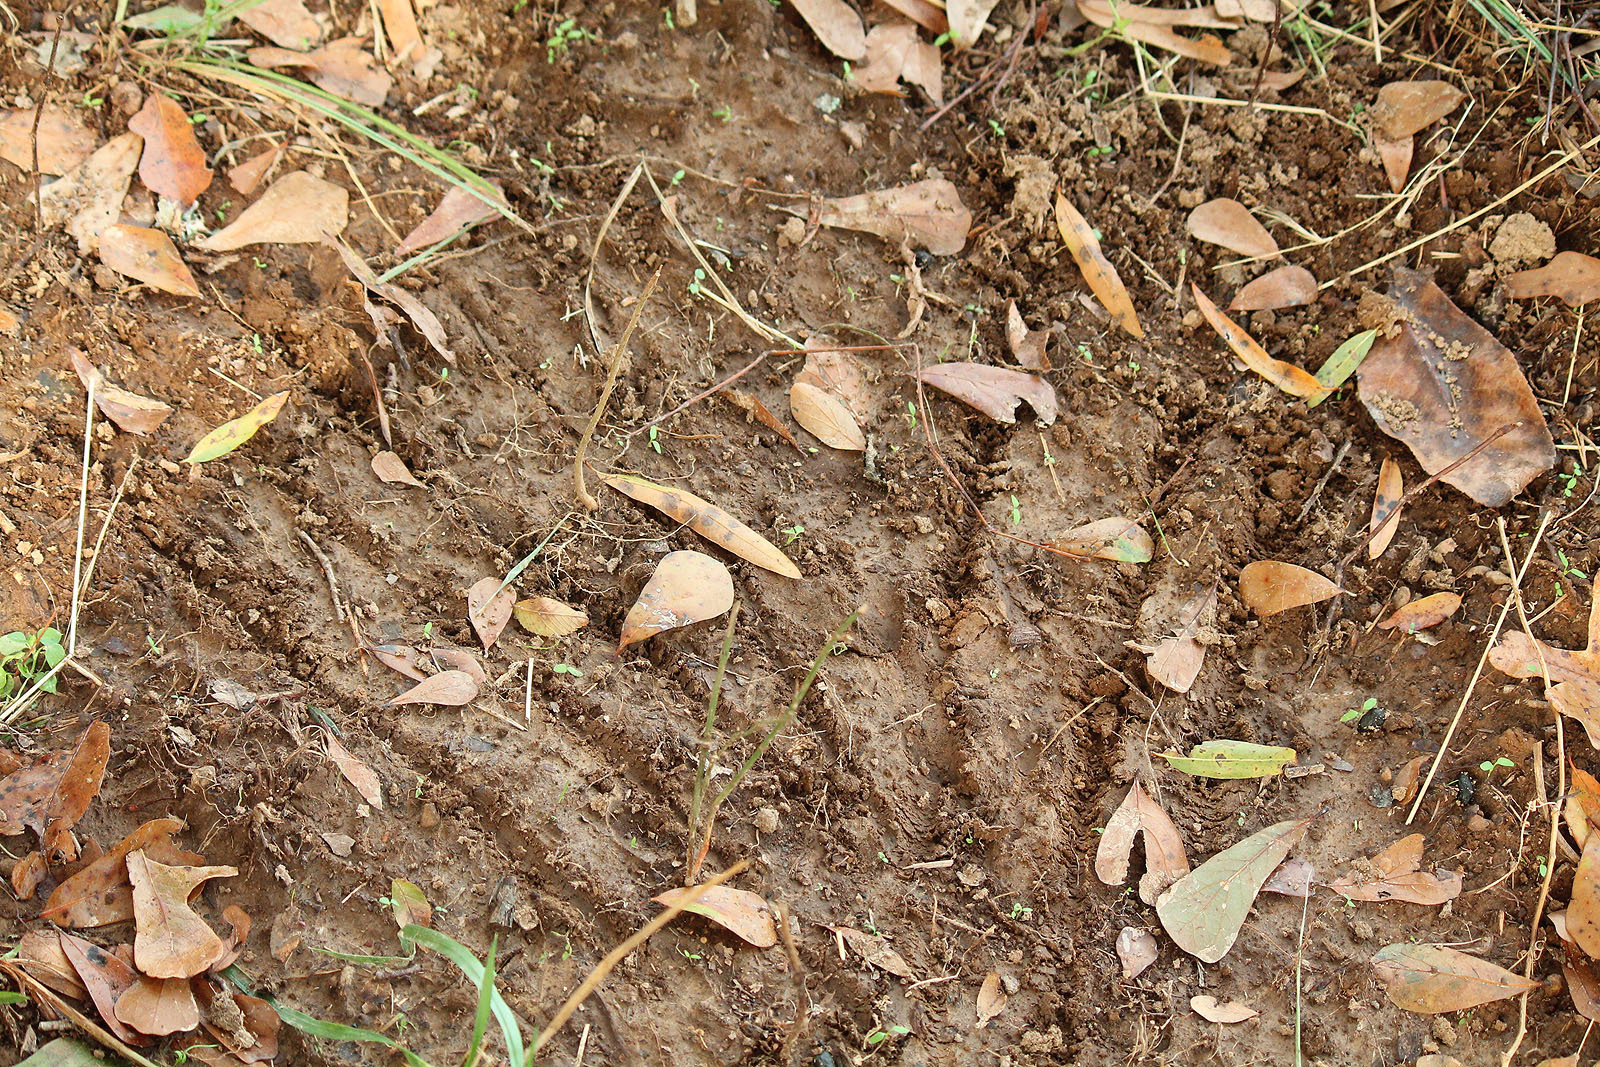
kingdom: Animalia
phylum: Chordata
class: Mammalia
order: Artiodactyla
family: Cervidae
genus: Odocoileus
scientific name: Odocoileus virginianus
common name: White-tailed deer
